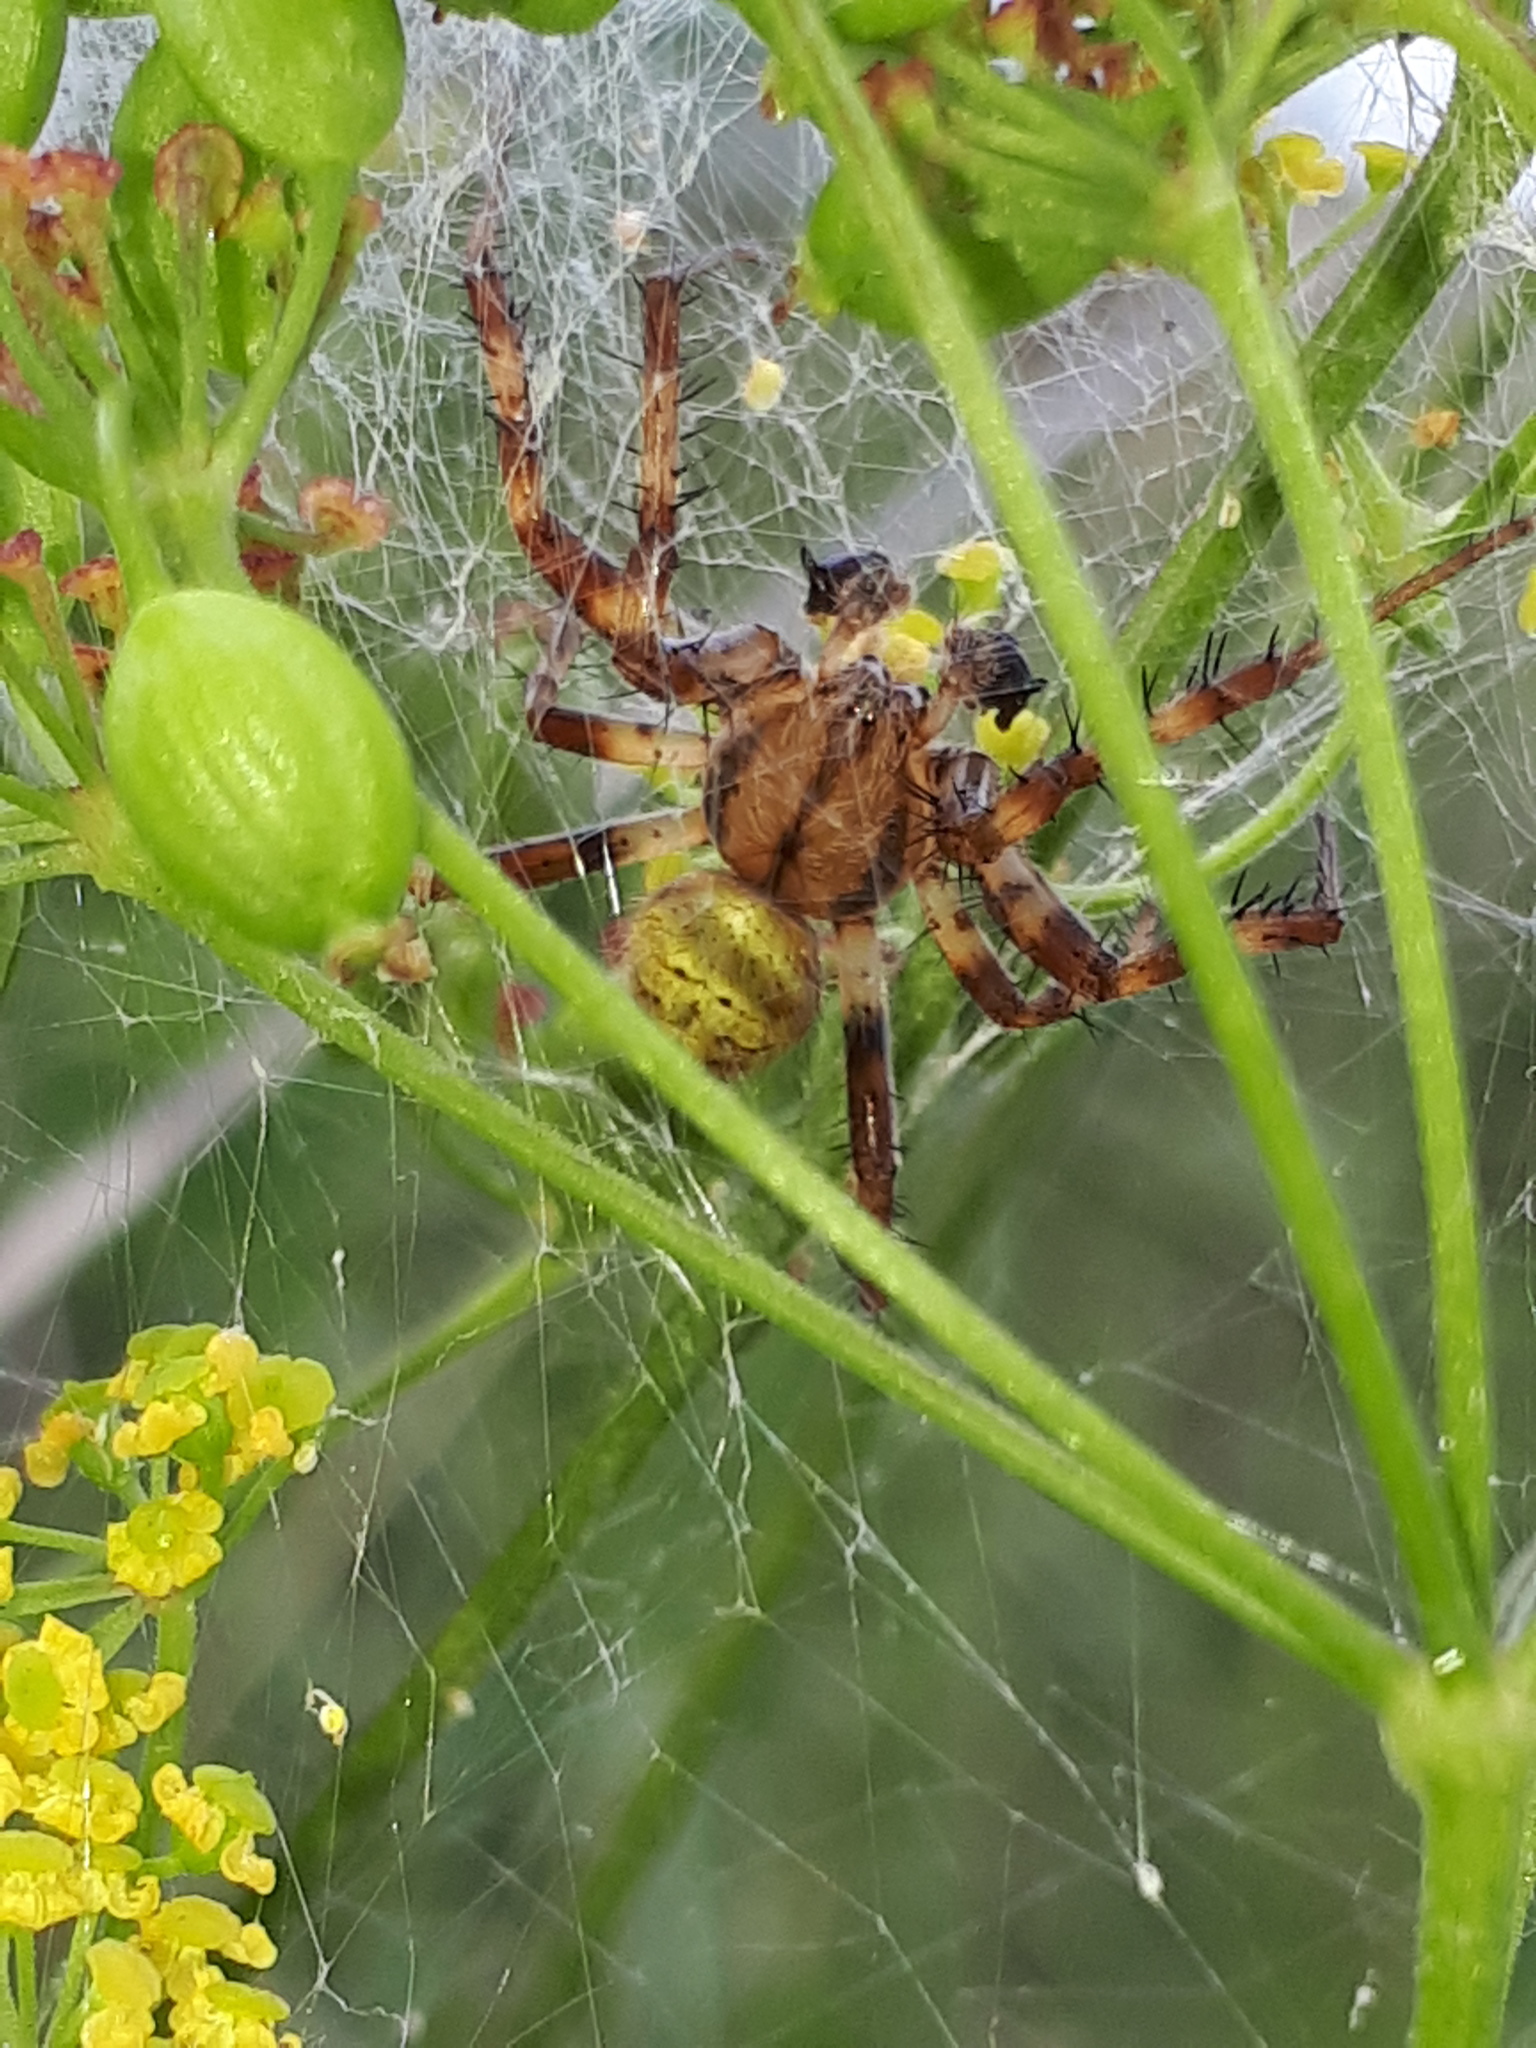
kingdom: Animalia
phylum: Arthropoda
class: Arachnida
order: Araneae
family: Araneidae
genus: Araneus
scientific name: Araneus quadratus
